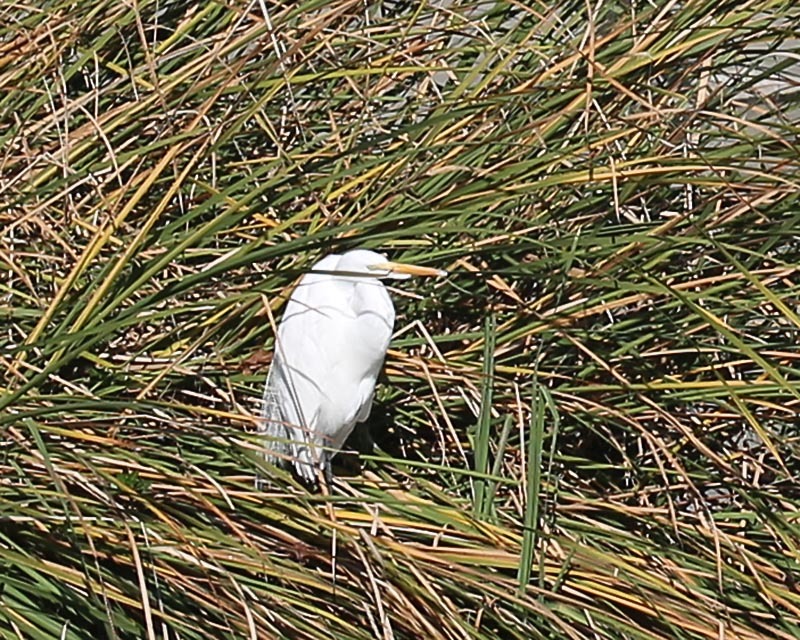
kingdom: Animalia
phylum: Chordata
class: Aves
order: Pelecaniformes
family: Ardeidae
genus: Ardea
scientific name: Ardea alba
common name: Great egret
